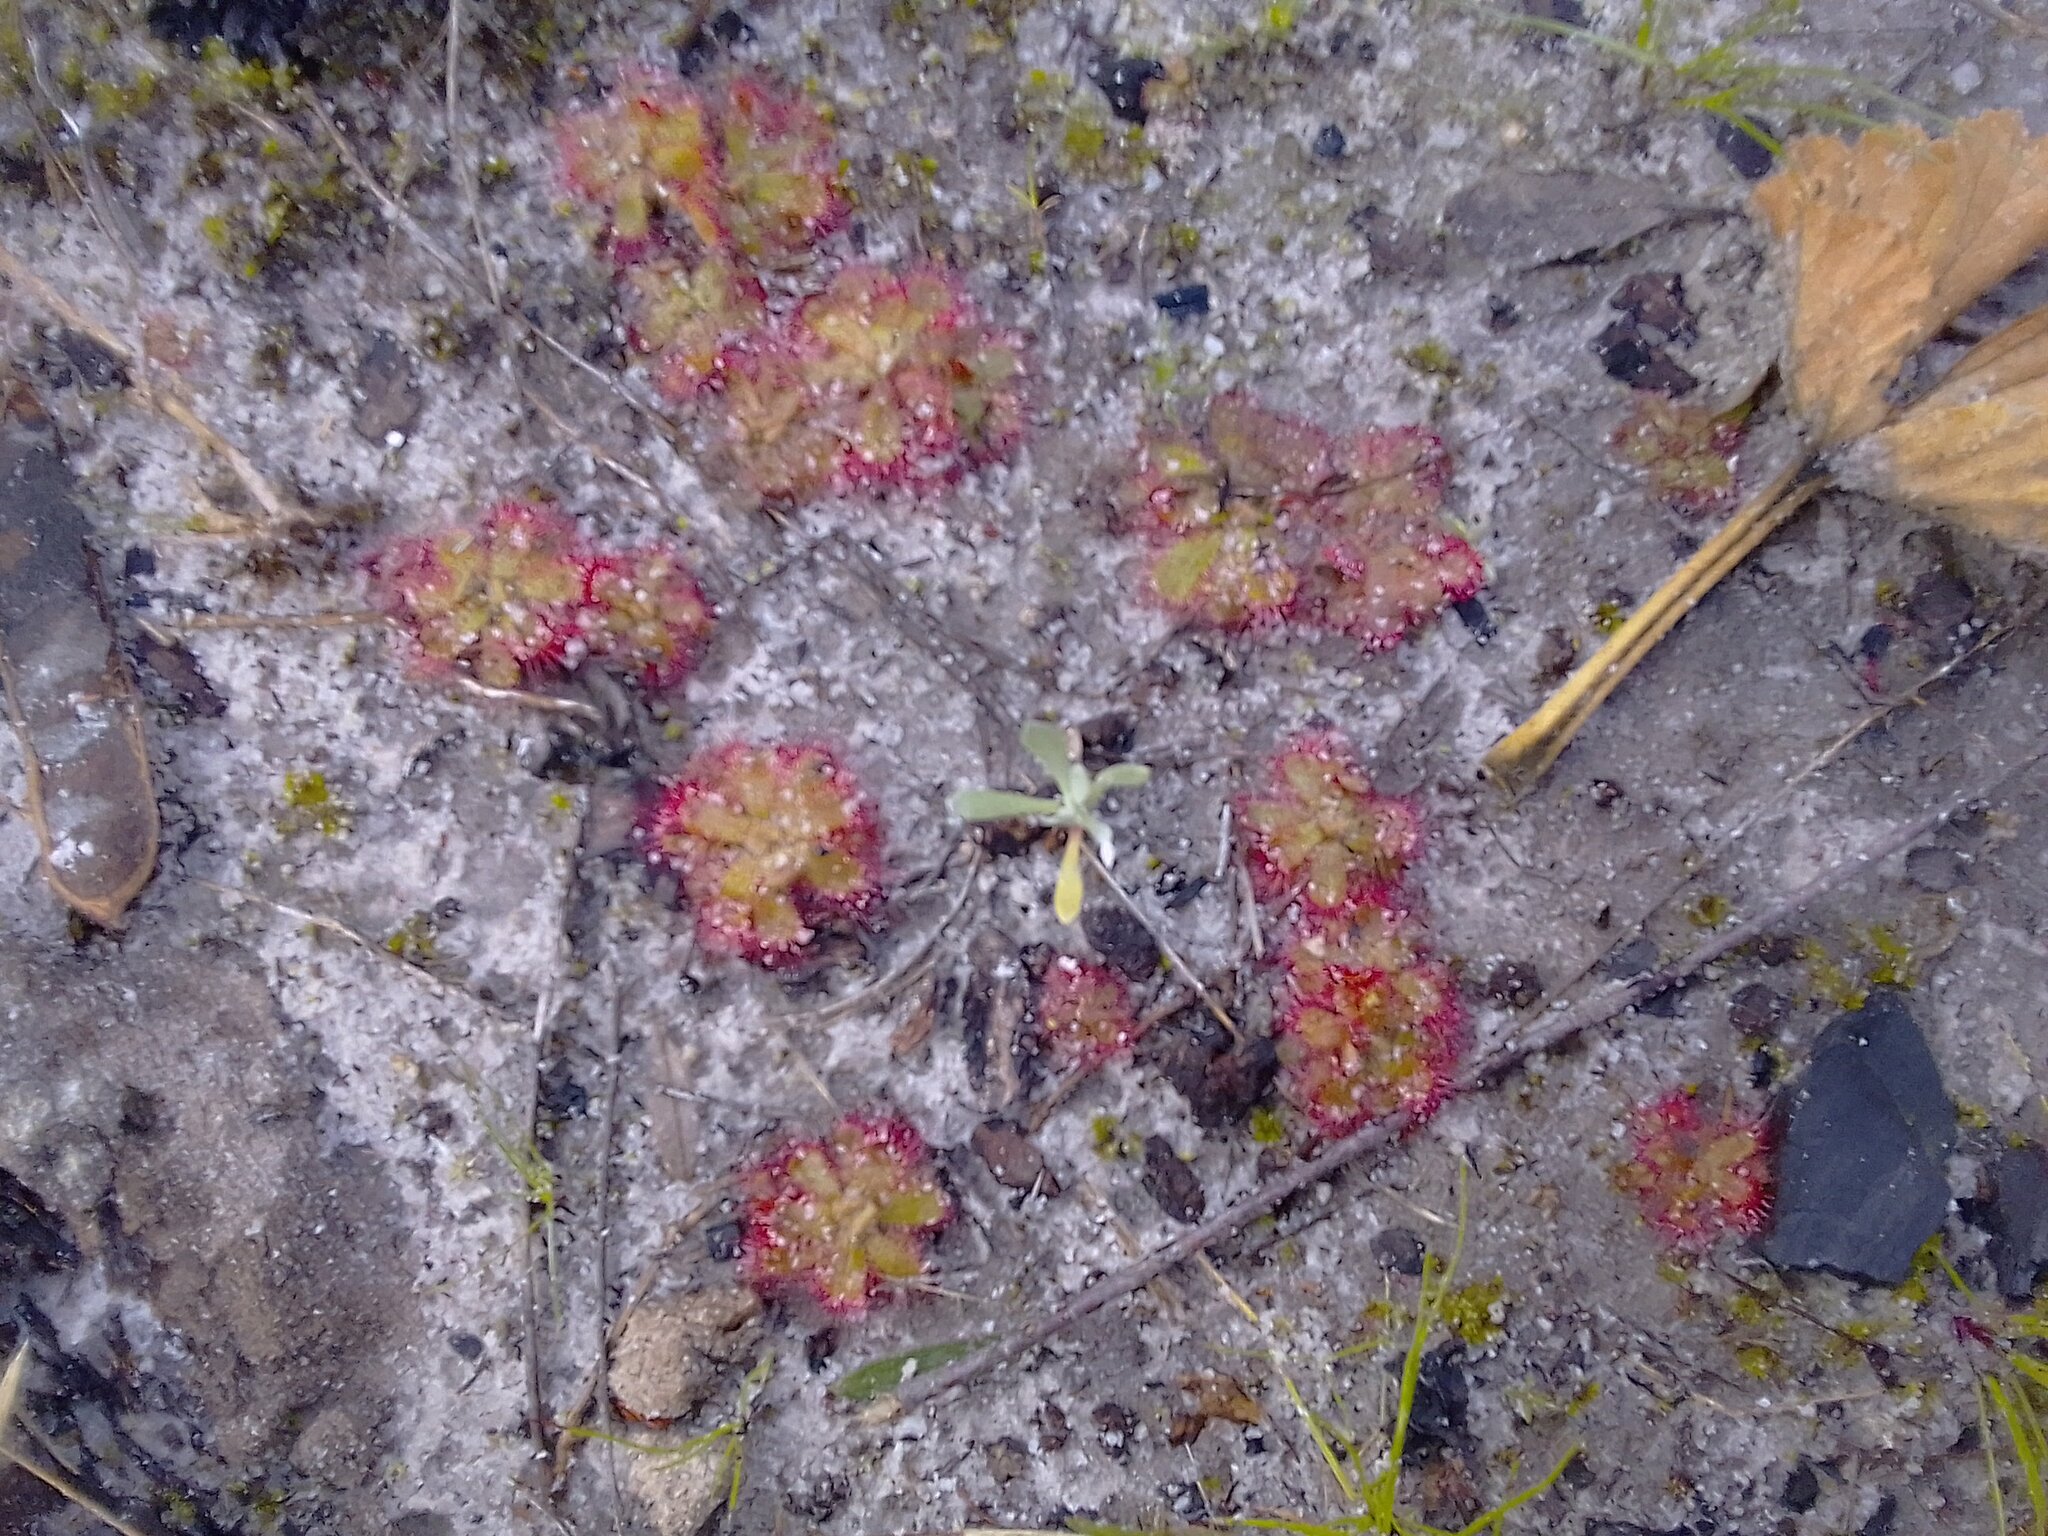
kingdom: Plantae
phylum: Tracheophyta
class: Magnoliopsida
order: Caryophyllales
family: Droseraceae
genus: Drosera
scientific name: Drosera trinervia
